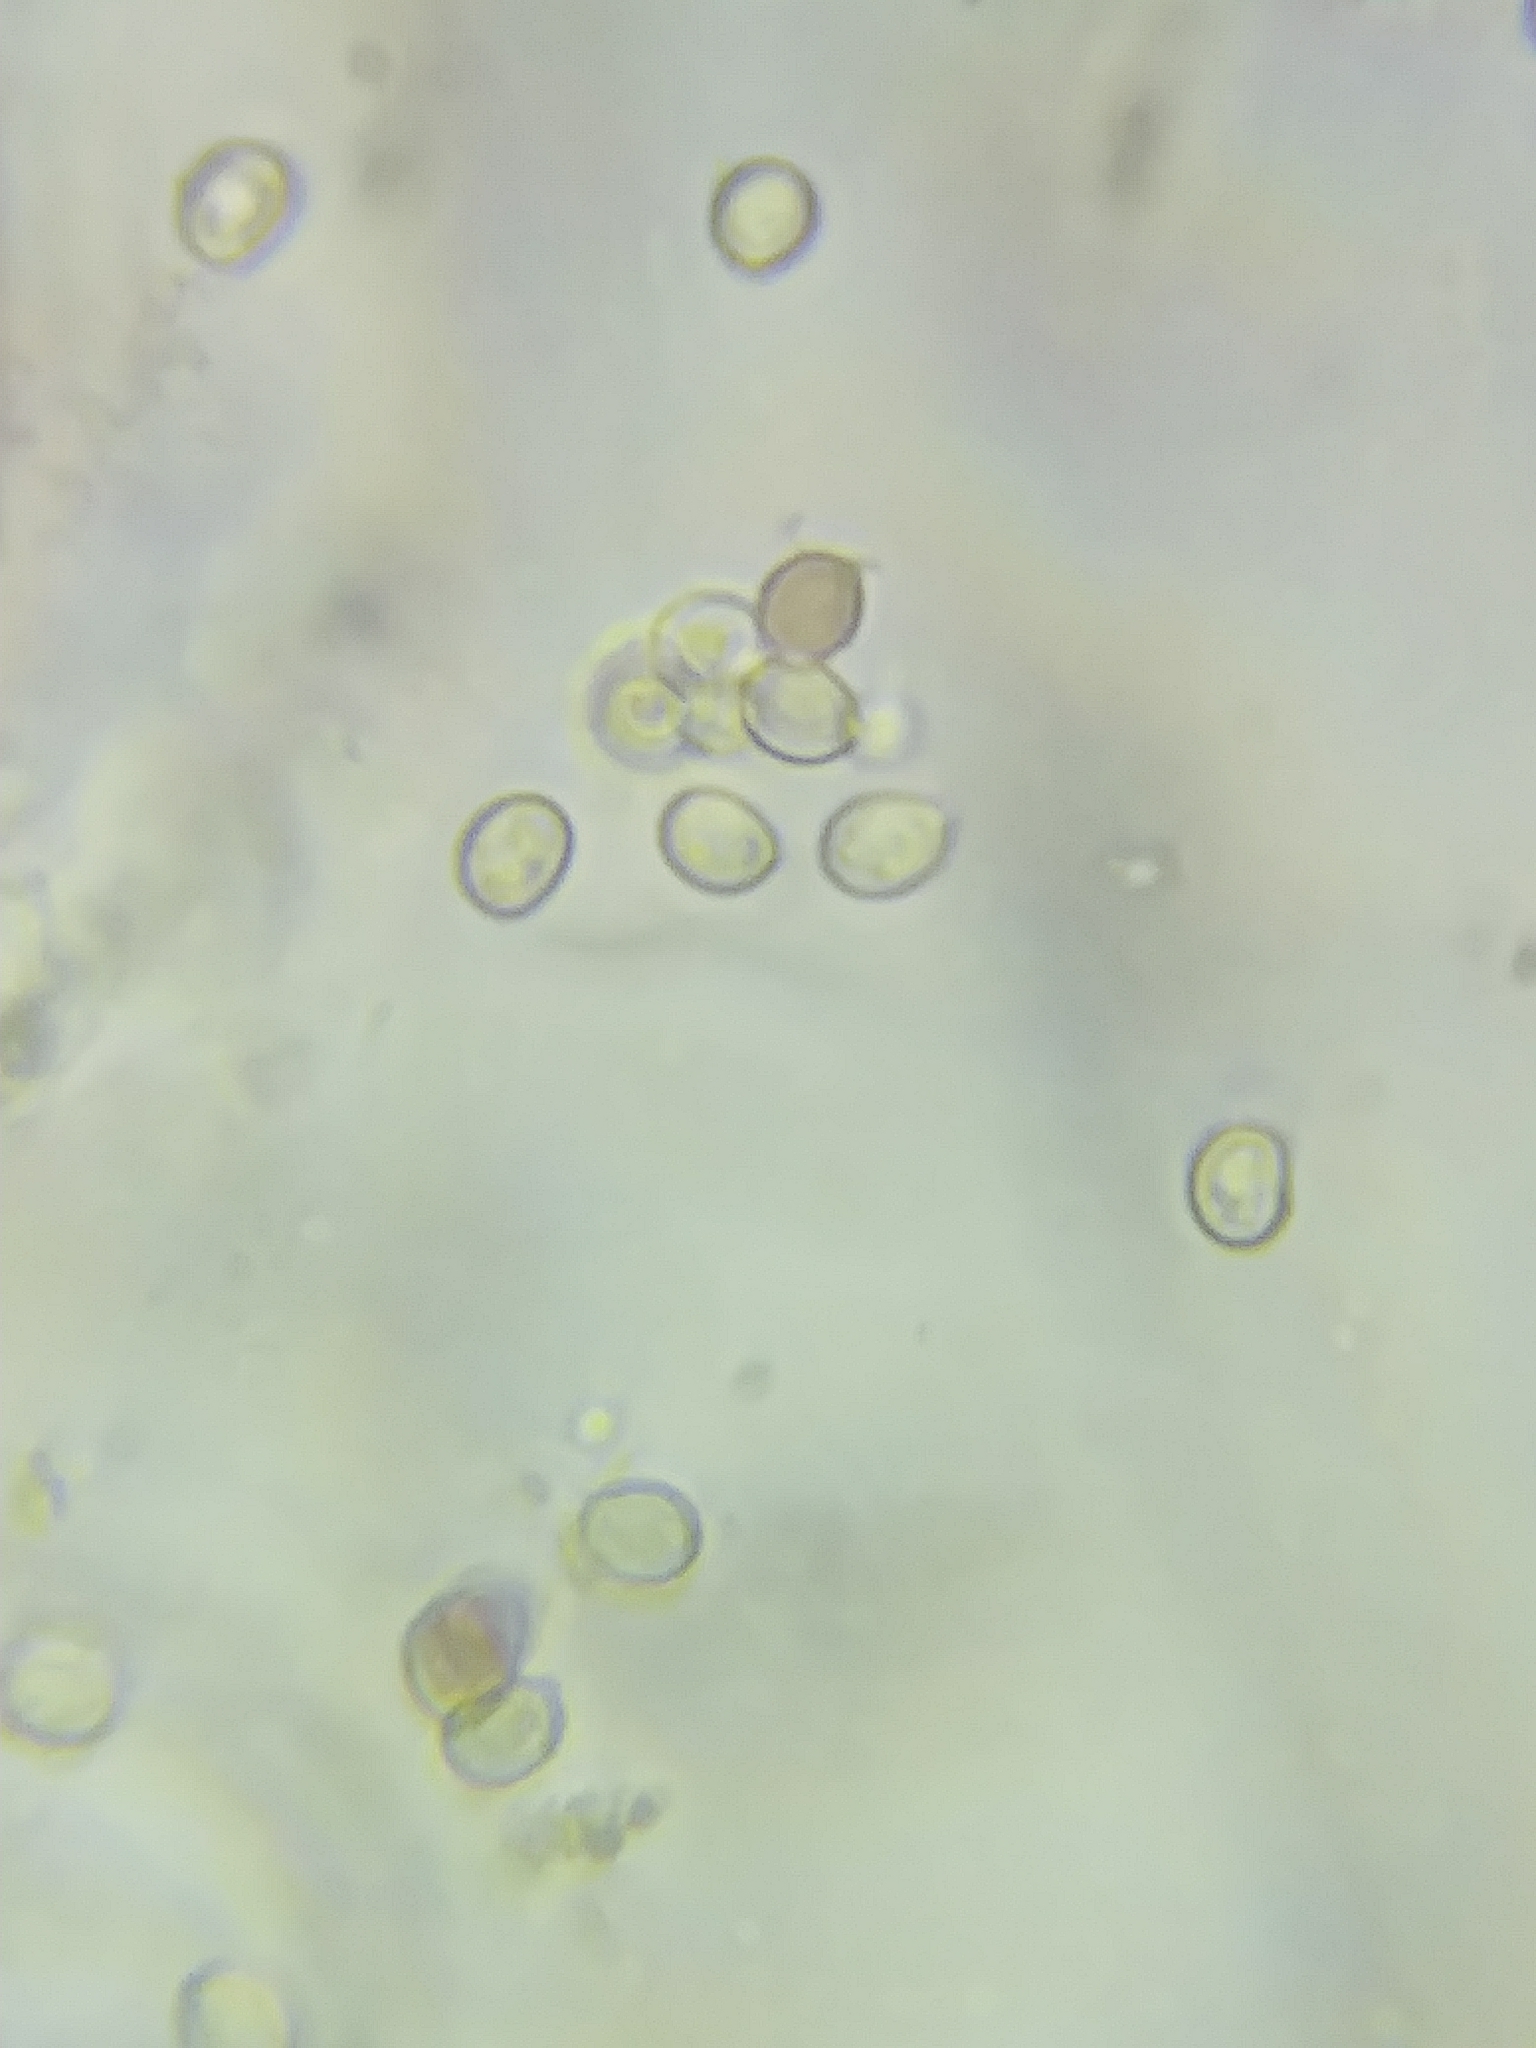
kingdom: Fungi
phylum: Basidiomycota
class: Agaricomycetes
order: Boletales
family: Tapinellaceae
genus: Tapinella
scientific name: Tapinella panuoides
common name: Oyster rollrim
